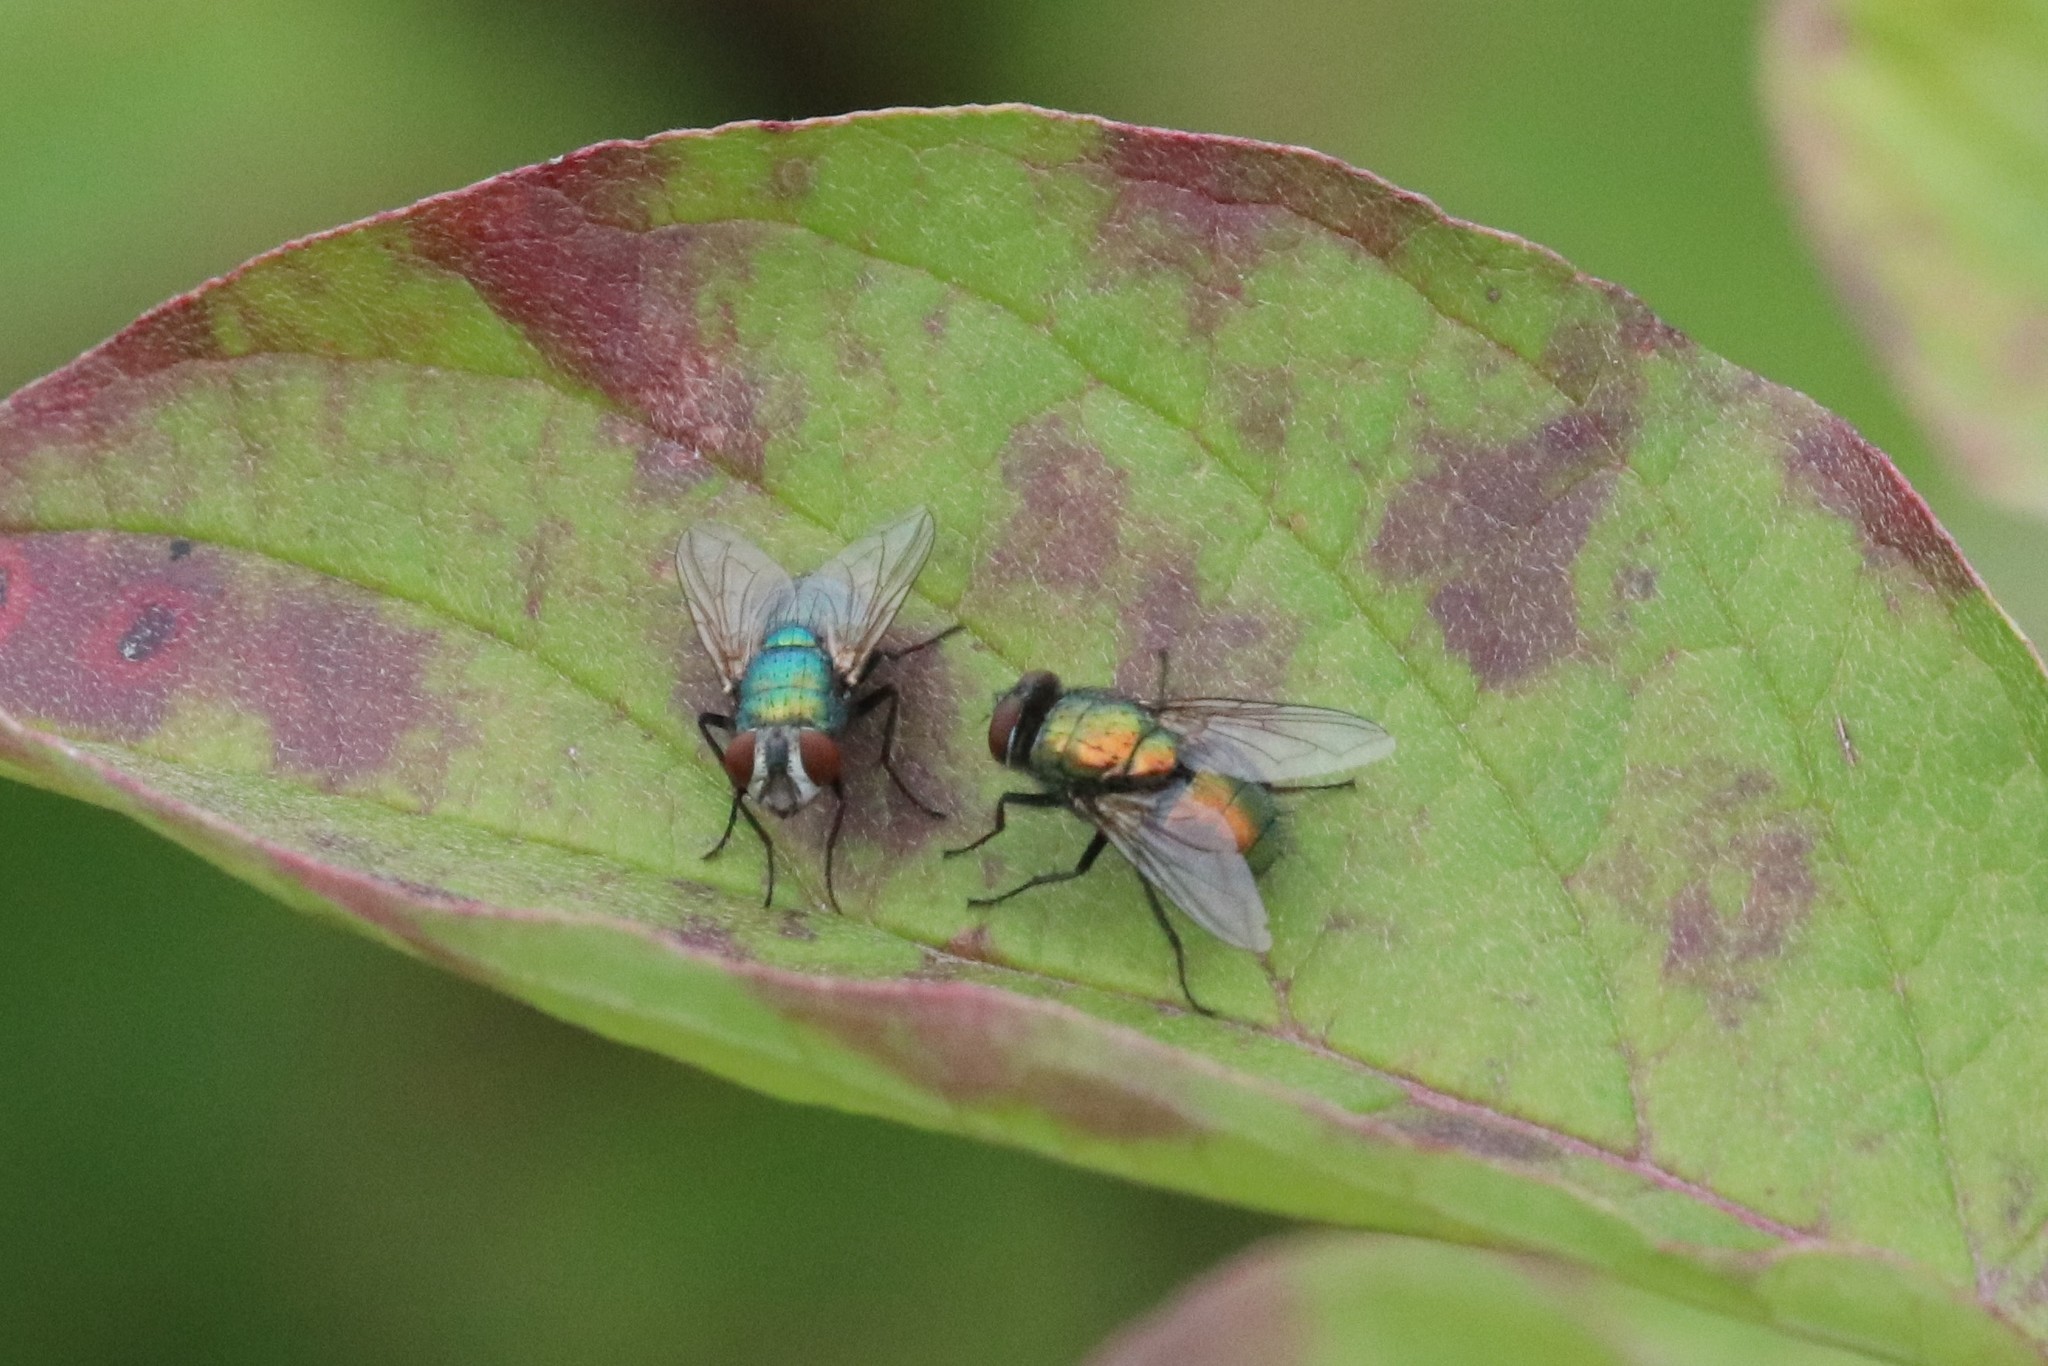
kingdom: Animalia
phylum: Arthropoda
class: Insecta
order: Diptera
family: Calliphoridae
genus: Lucilia
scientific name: Lucilia sericata
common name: Blow fly
